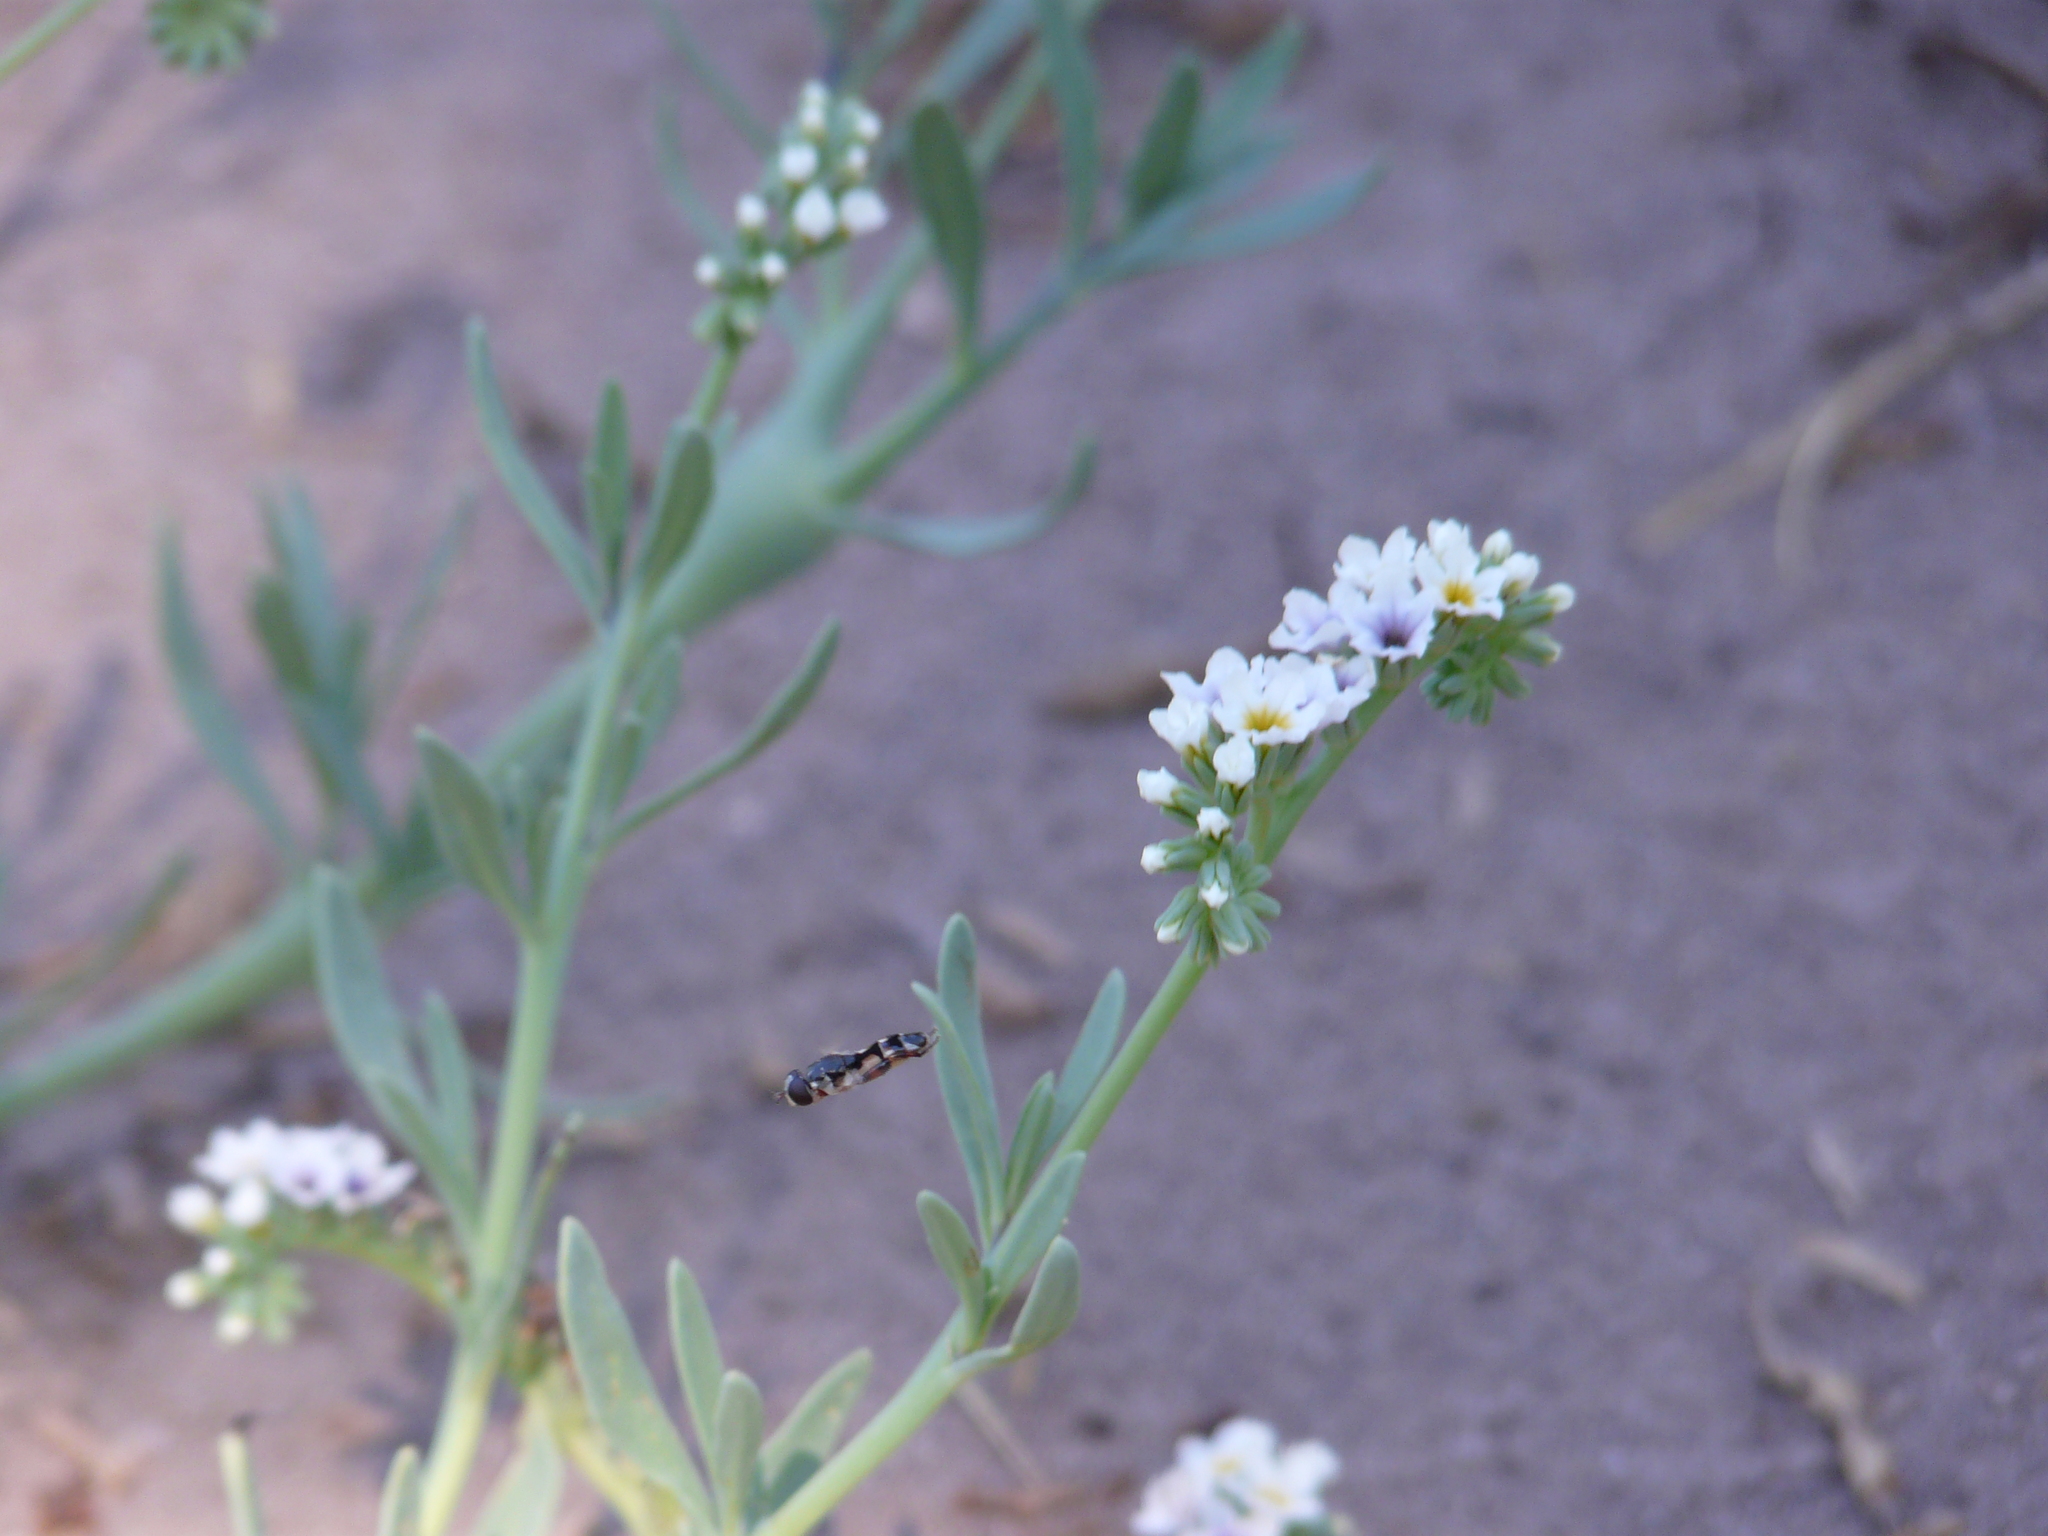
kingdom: Animalia
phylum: Arthropoda
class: Insecta
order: Diptera
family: Syrphidae
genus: Syritta
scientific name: Syritta flaviventris
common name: Syrphid fly
